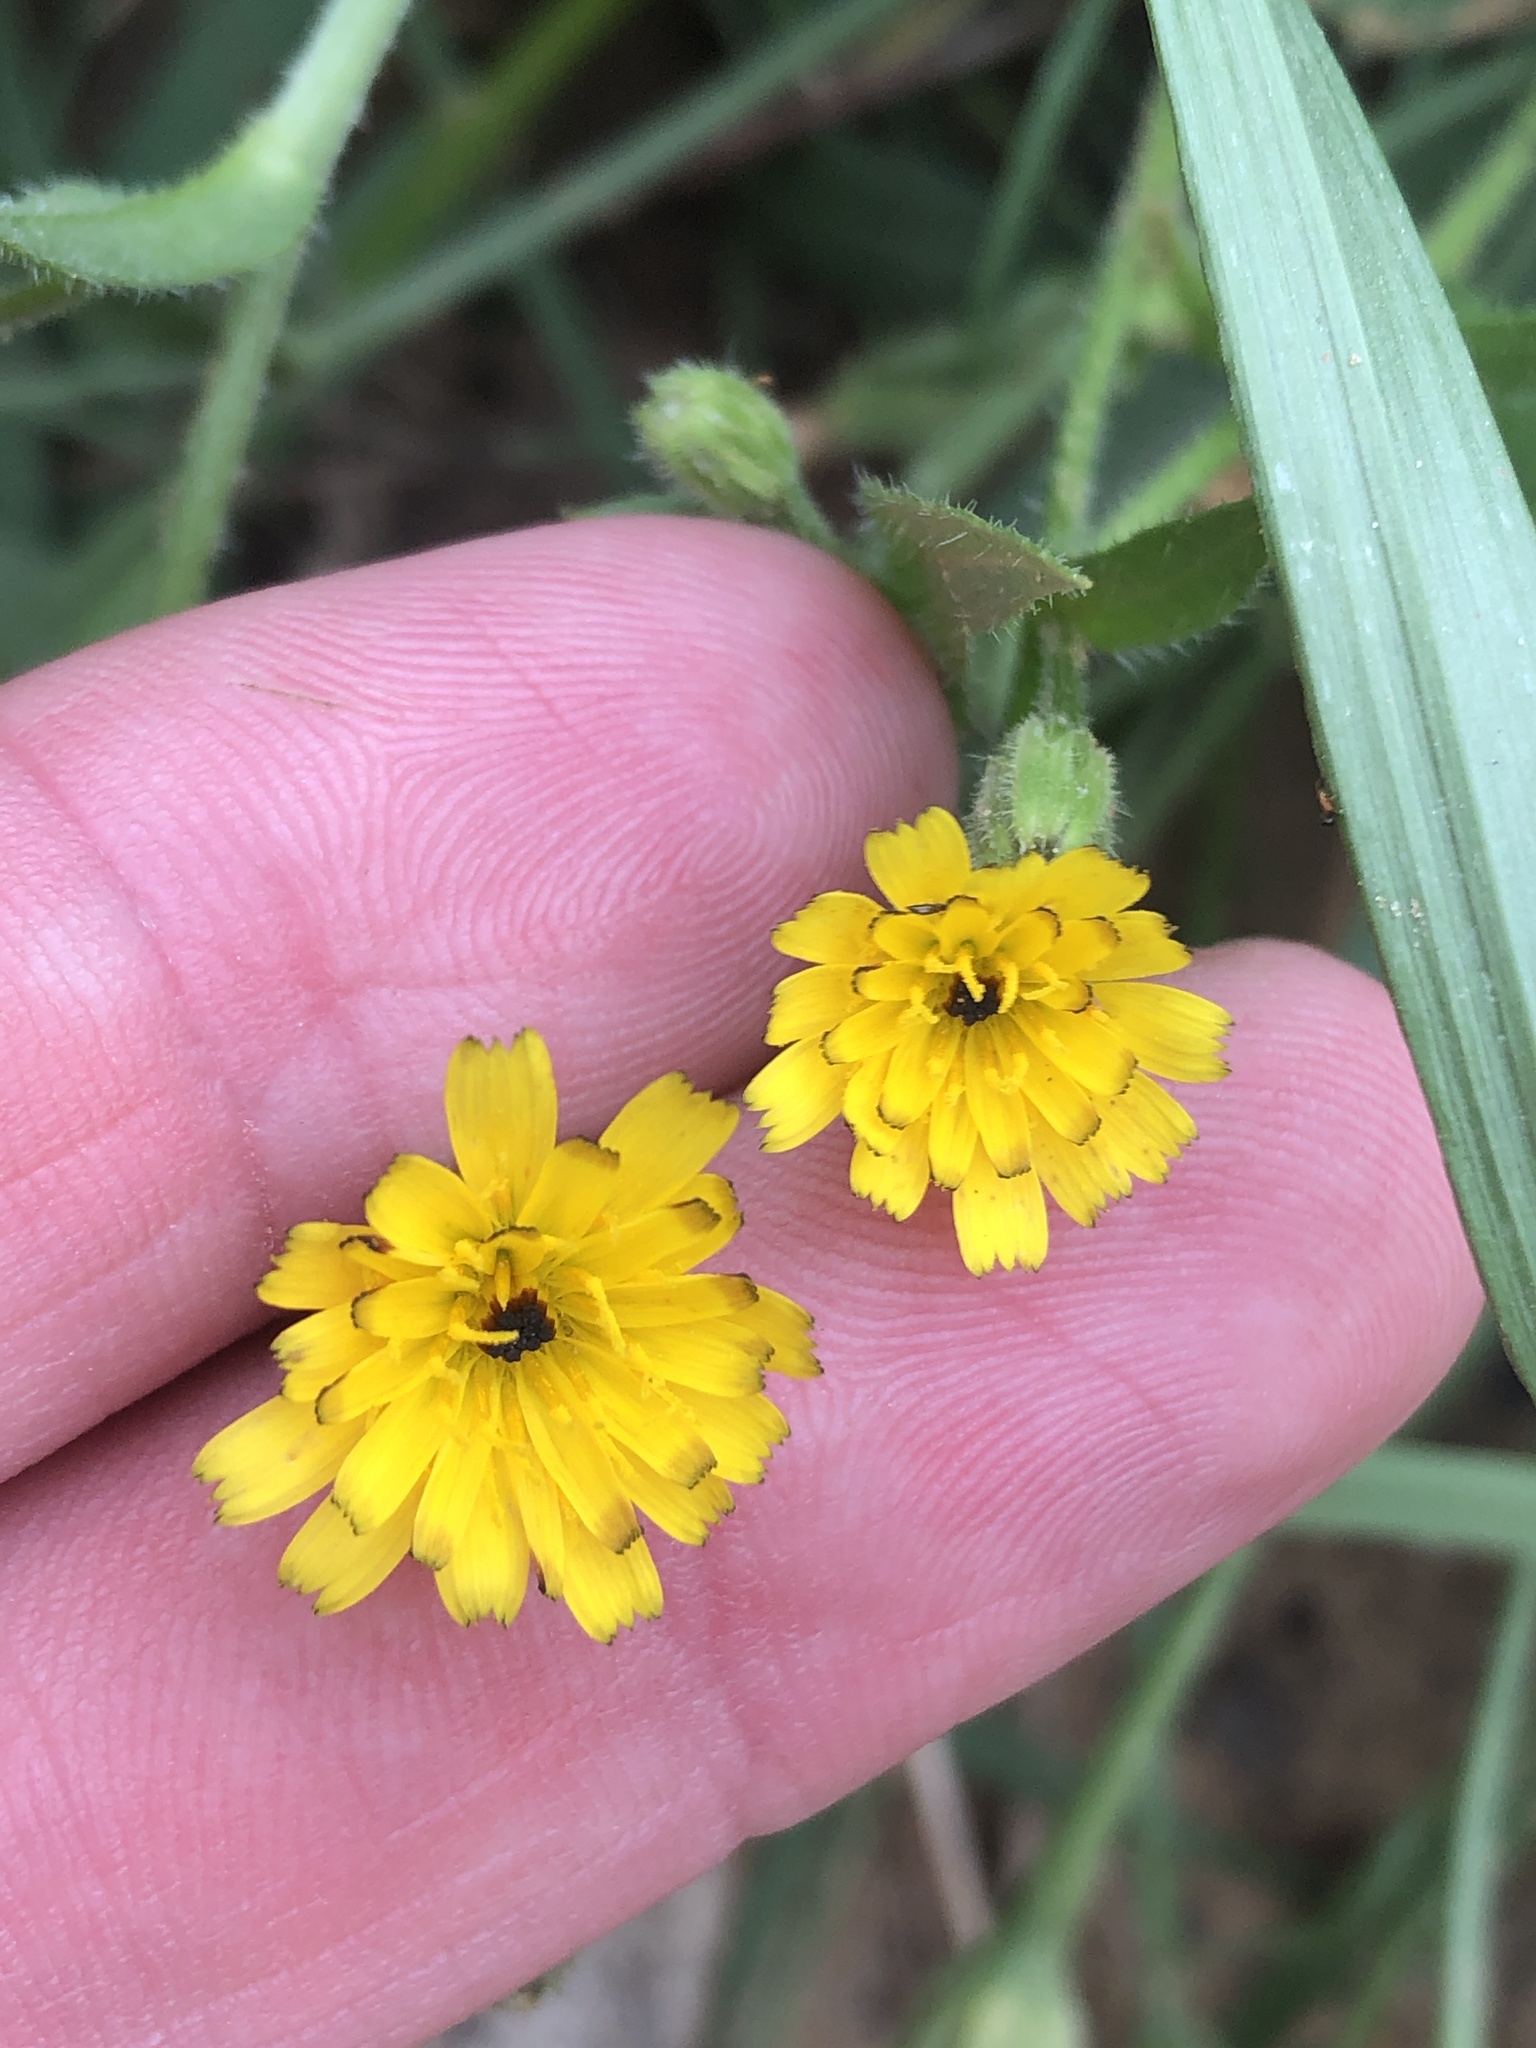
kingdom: Plantae
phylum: Tracheophyta
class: Magnoliopsida
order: Asterales
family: Asteraceae
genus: Hedypnois
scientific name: Hedypnois rhagadioloides
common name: Cretan weed
